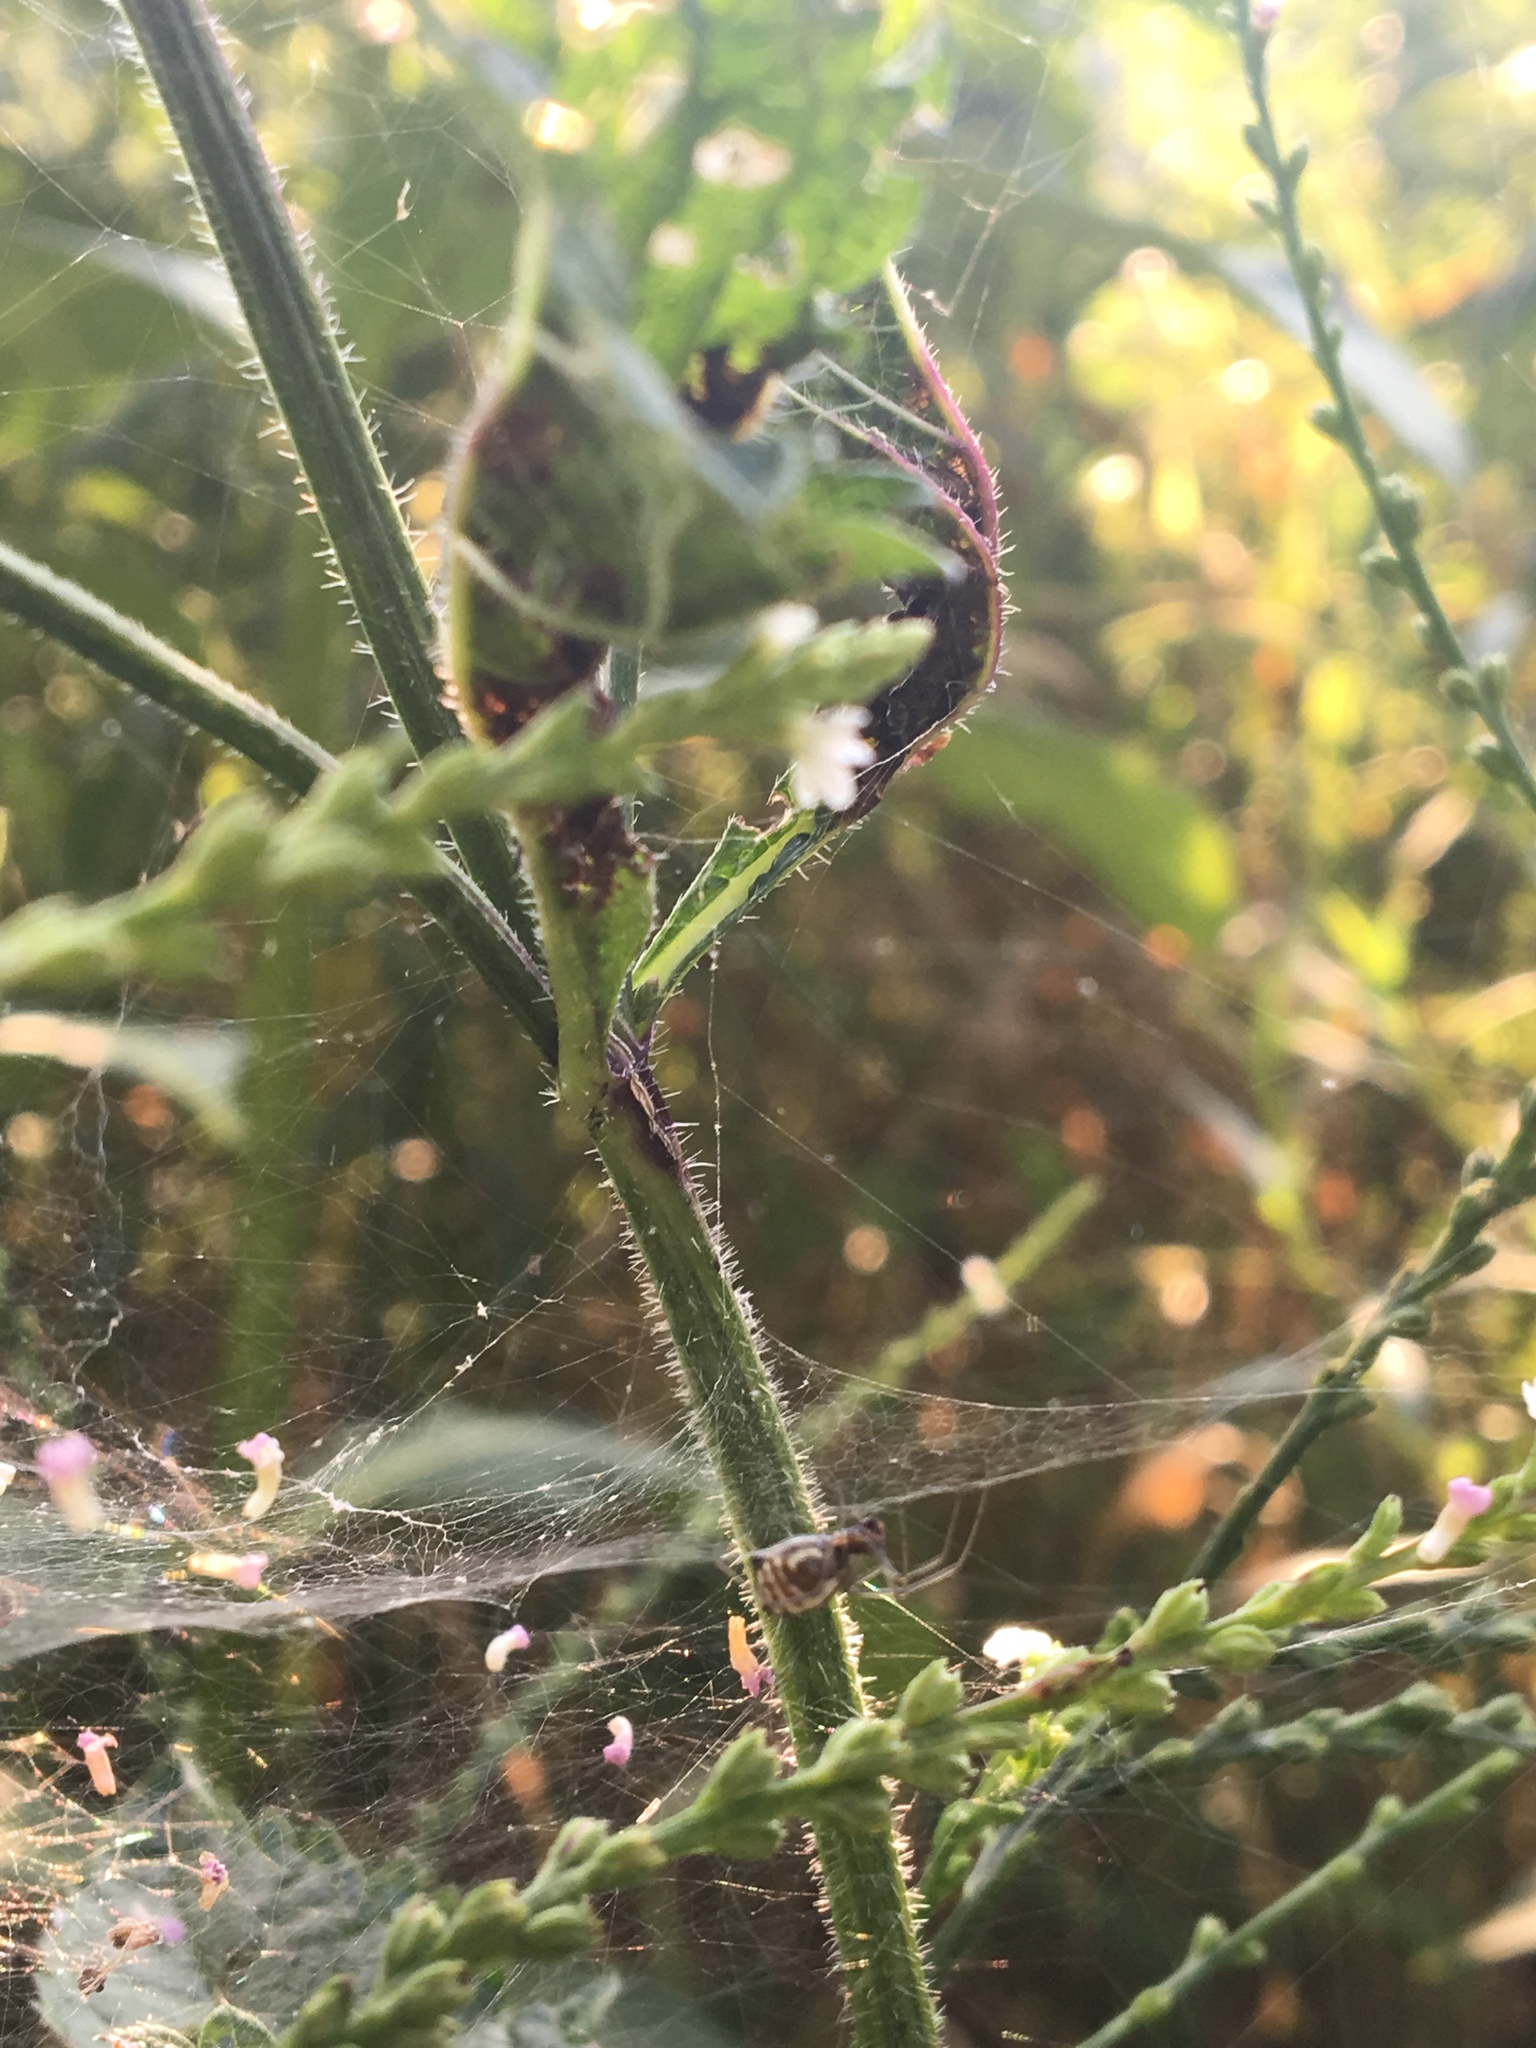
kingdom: Animalia
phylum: Arthropoda
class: Arachnida
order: Araneae
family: Linyphiidae
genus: Frontinella
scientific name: Frontinella pyramitela
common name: Bowl-and-doily spider
